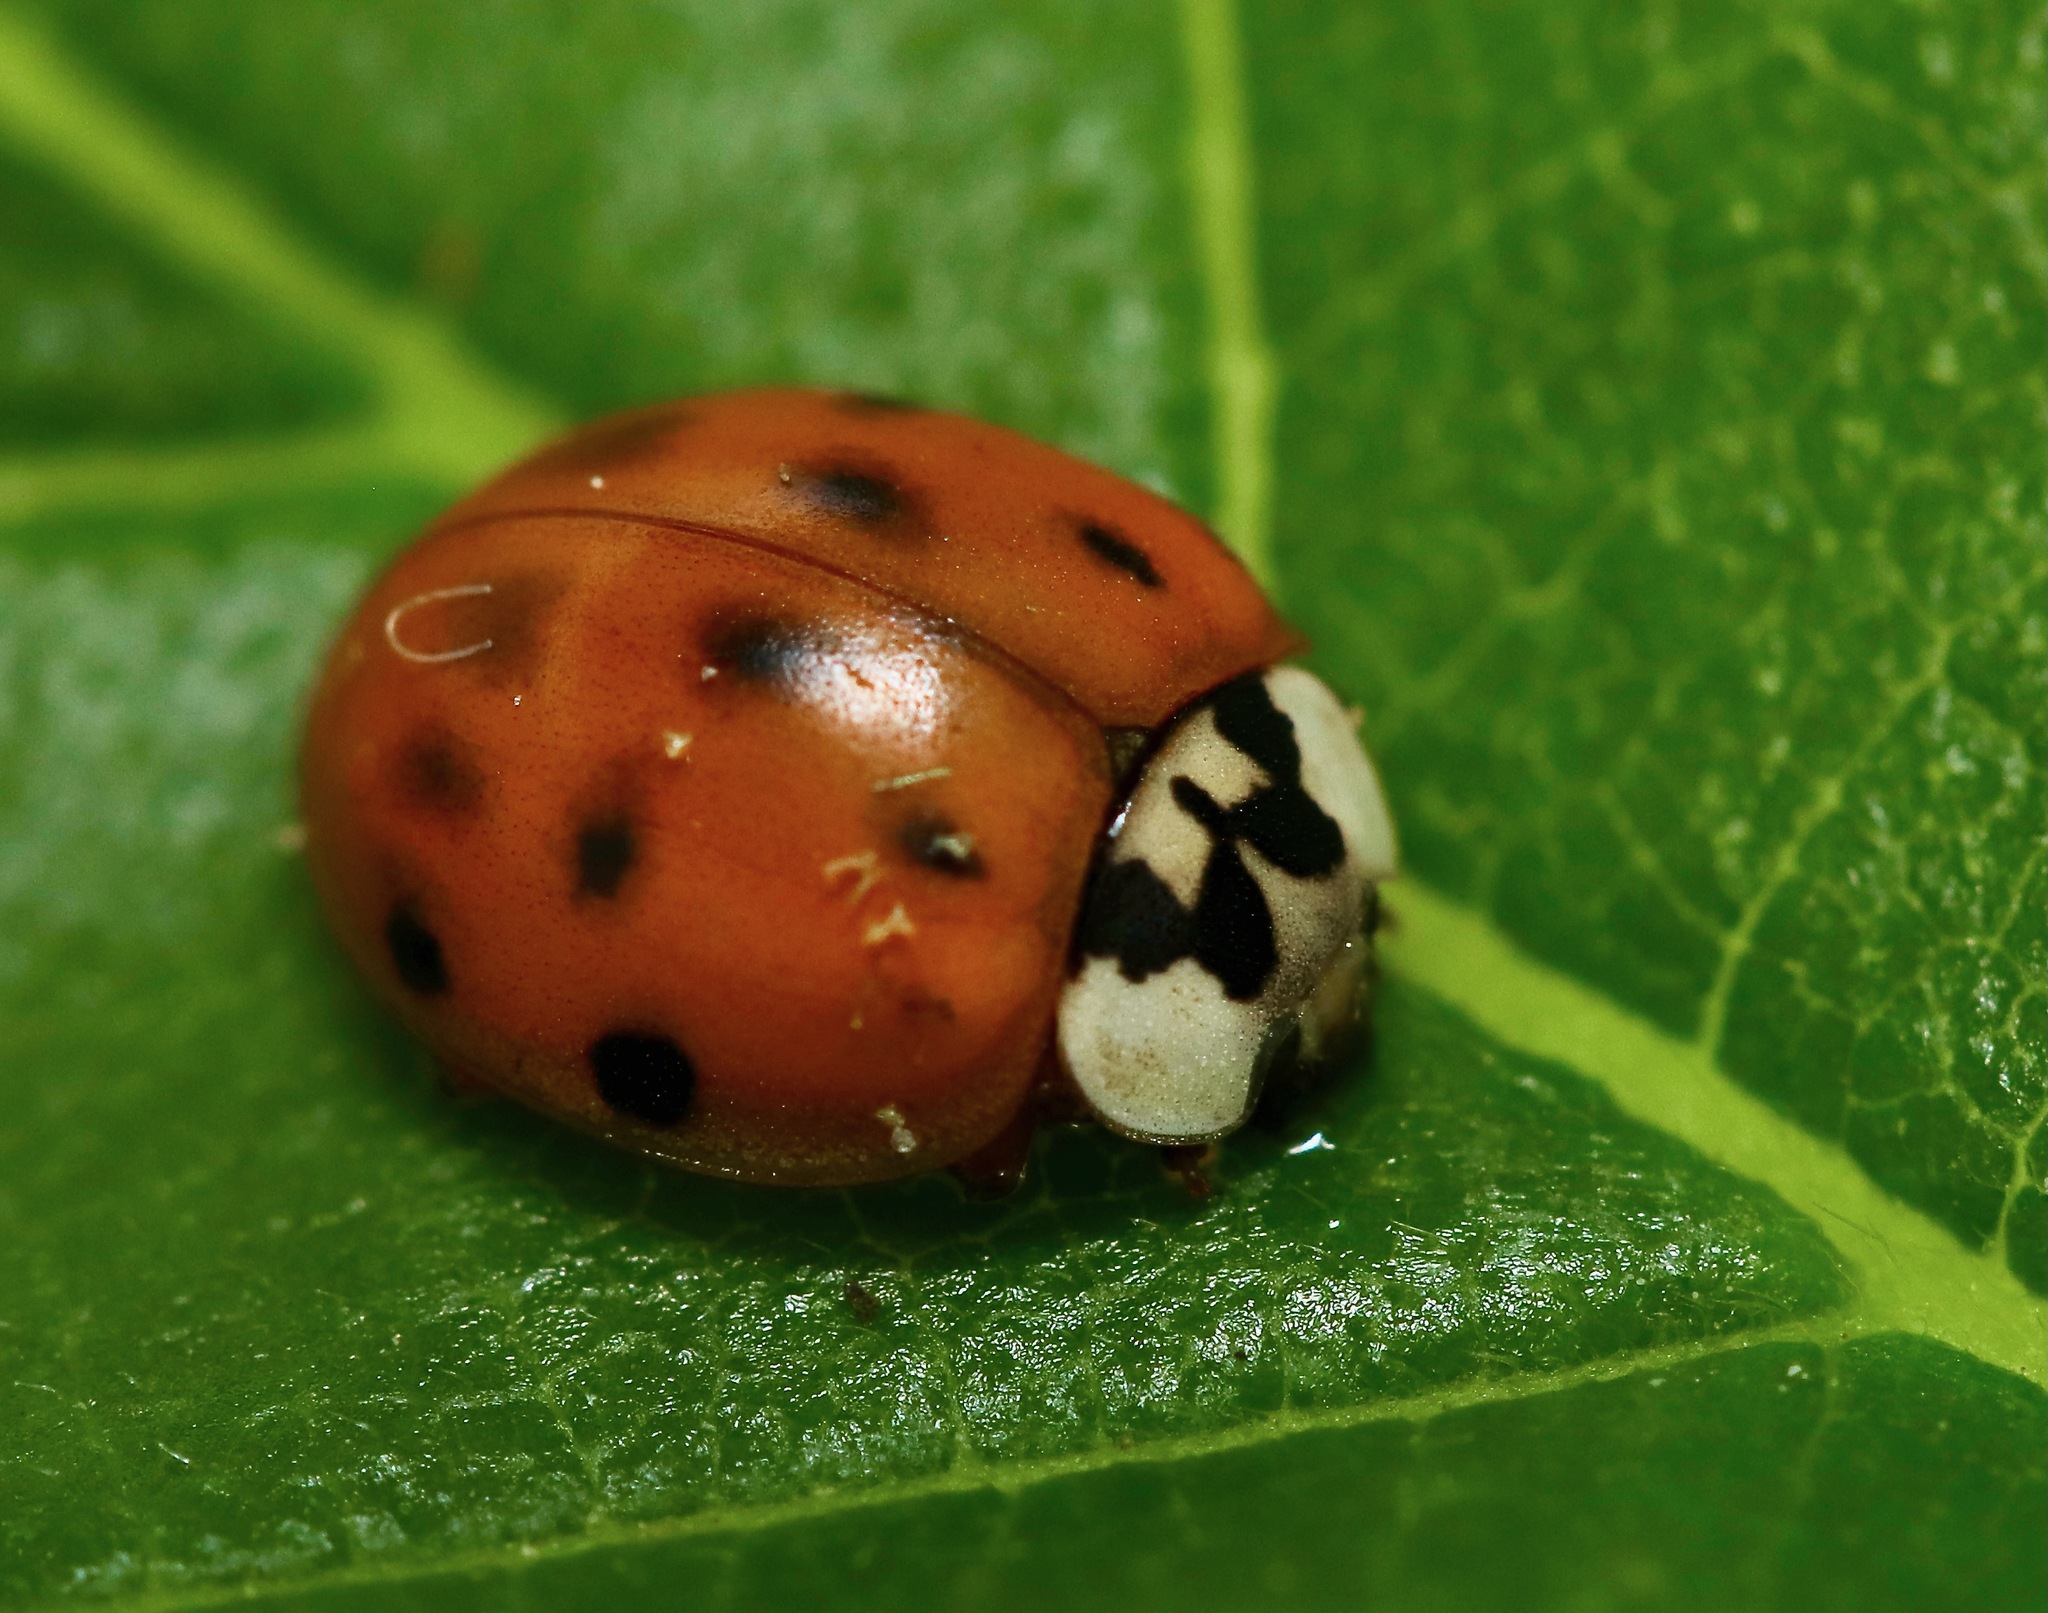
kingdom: Animalia
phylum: Arthropoda
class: Insecta
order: Coleoptera
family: Coccinellidae
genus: Harmonia
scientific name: Harmonia axyridis
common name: Harlequin ladybird
